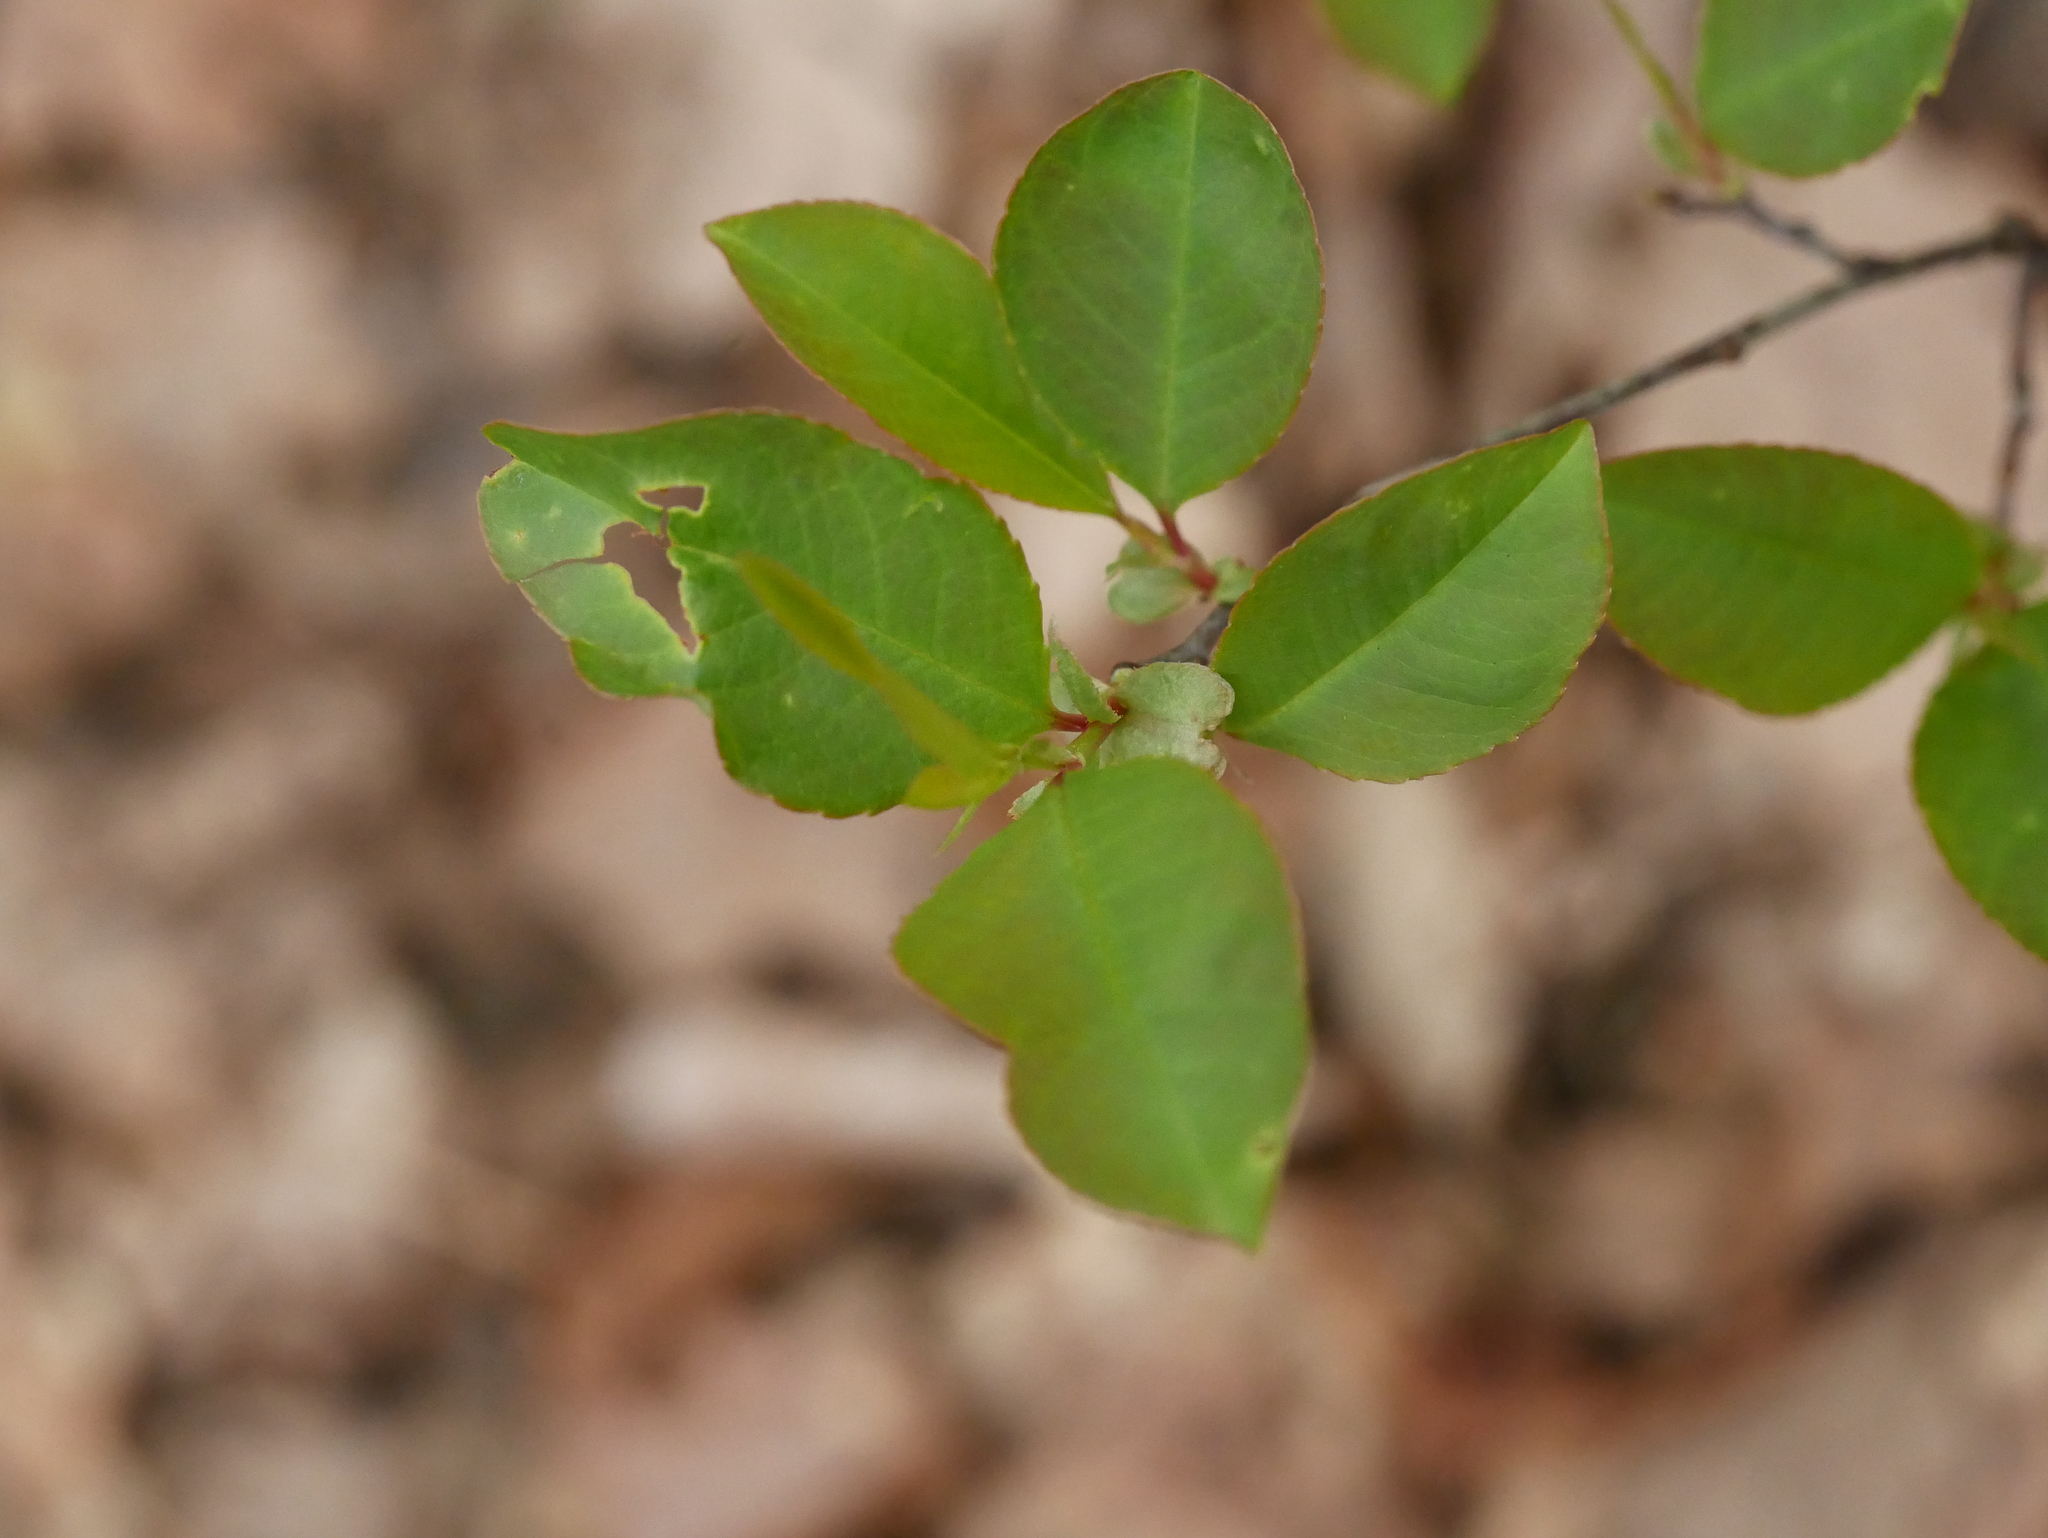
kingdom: Plantae
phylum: Tracheophyta
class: Magnoliopsida
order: Rosales
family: Rosaceae
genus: Prunus
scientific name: Prunus serotina
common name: Black cherry
